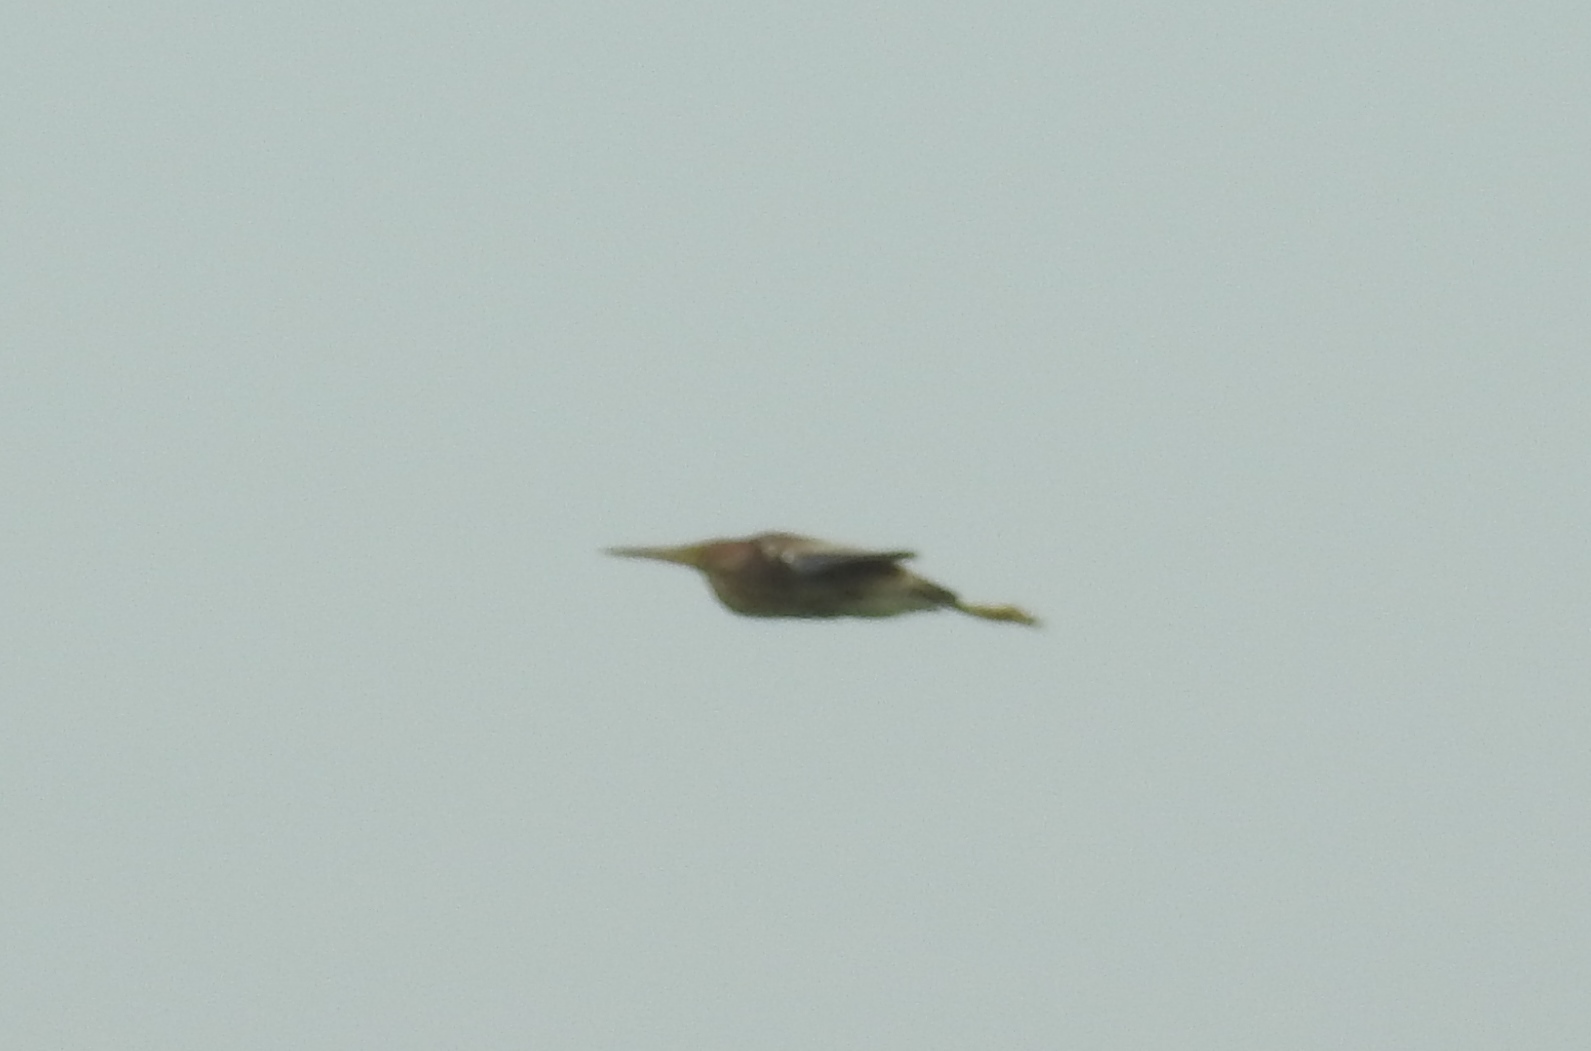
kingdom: Animalia
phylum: Chordata
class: Aves
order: Pelecaniformes
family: Ardeidae
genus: Ixobrychus
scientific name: Ixobrychus sinensis
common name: Yellow bittern
